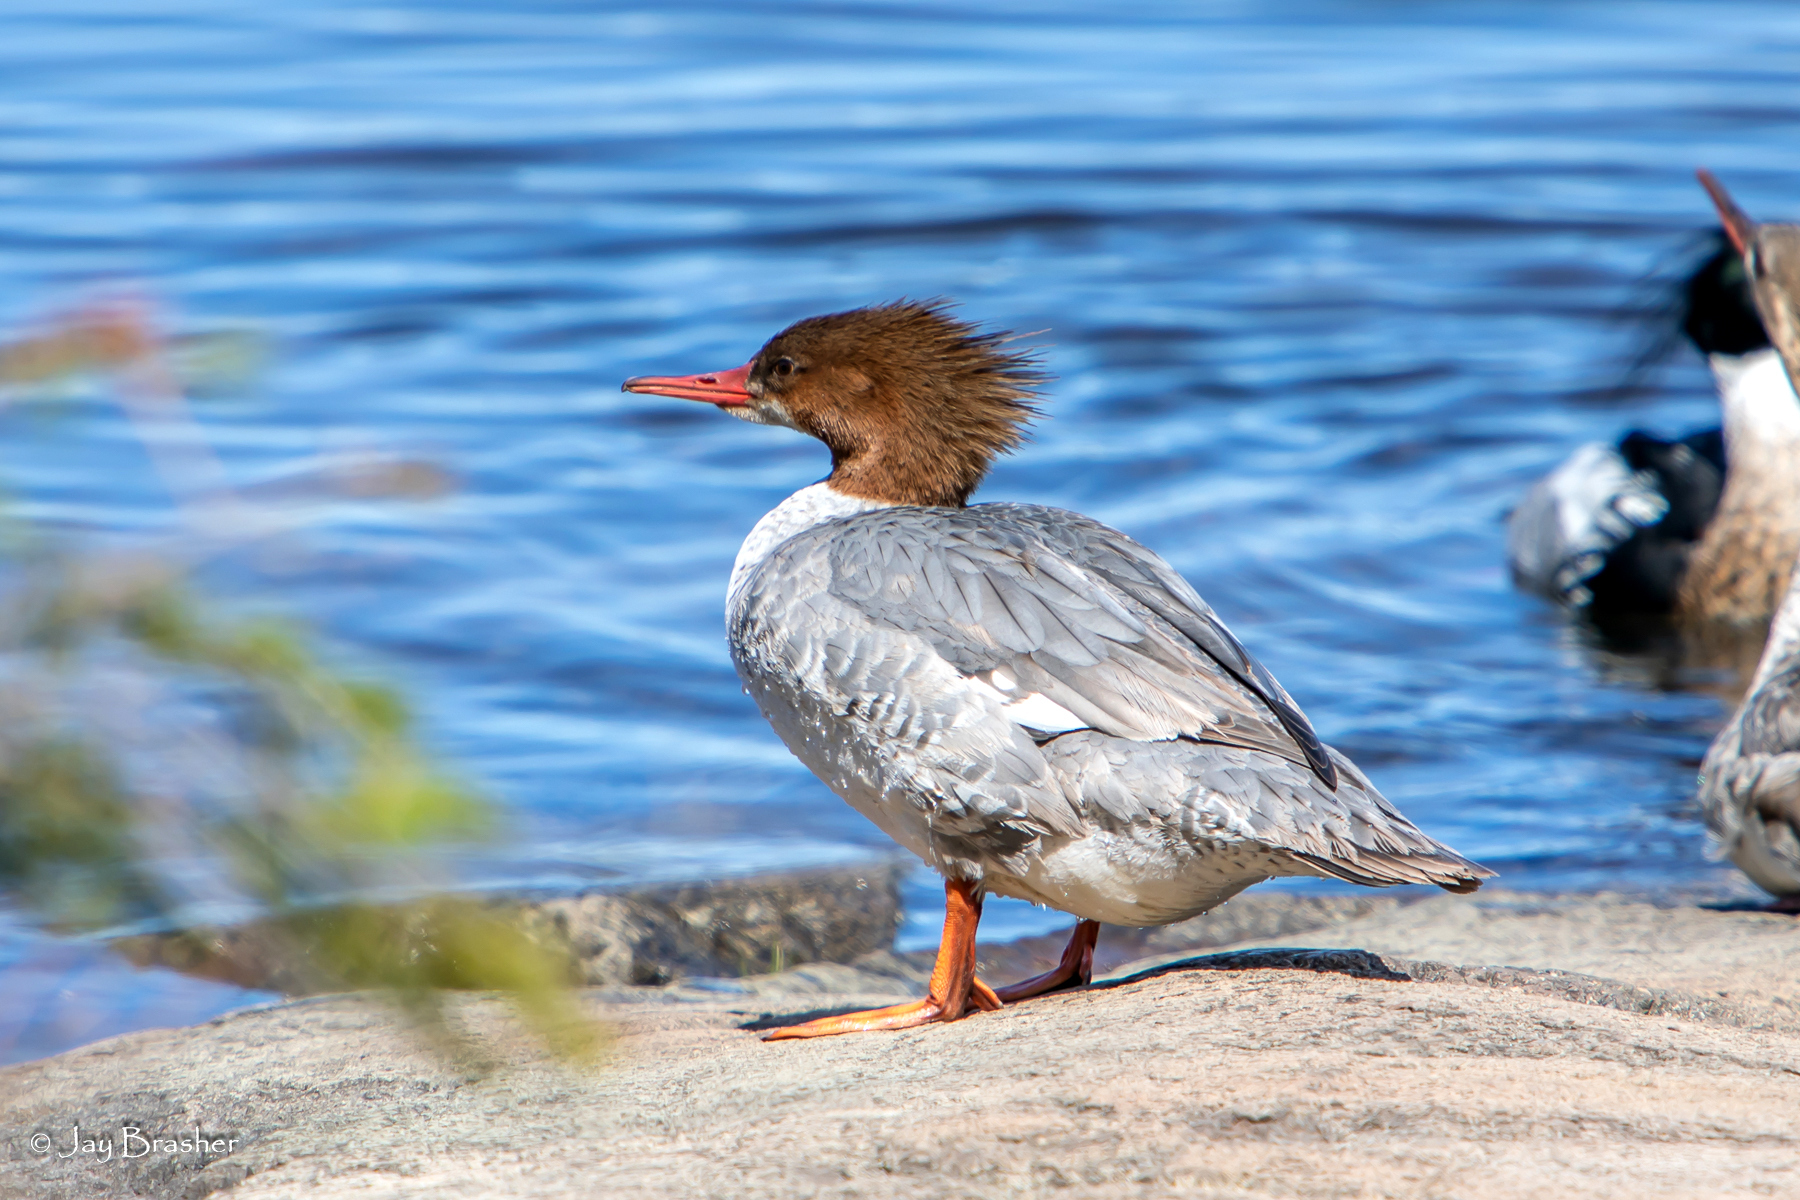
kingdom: Animalia
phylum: Chordata
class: Aves
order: Anseriformes
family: Anatidae
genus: Mergus
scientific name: Mergus merganser
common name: Common merganser
